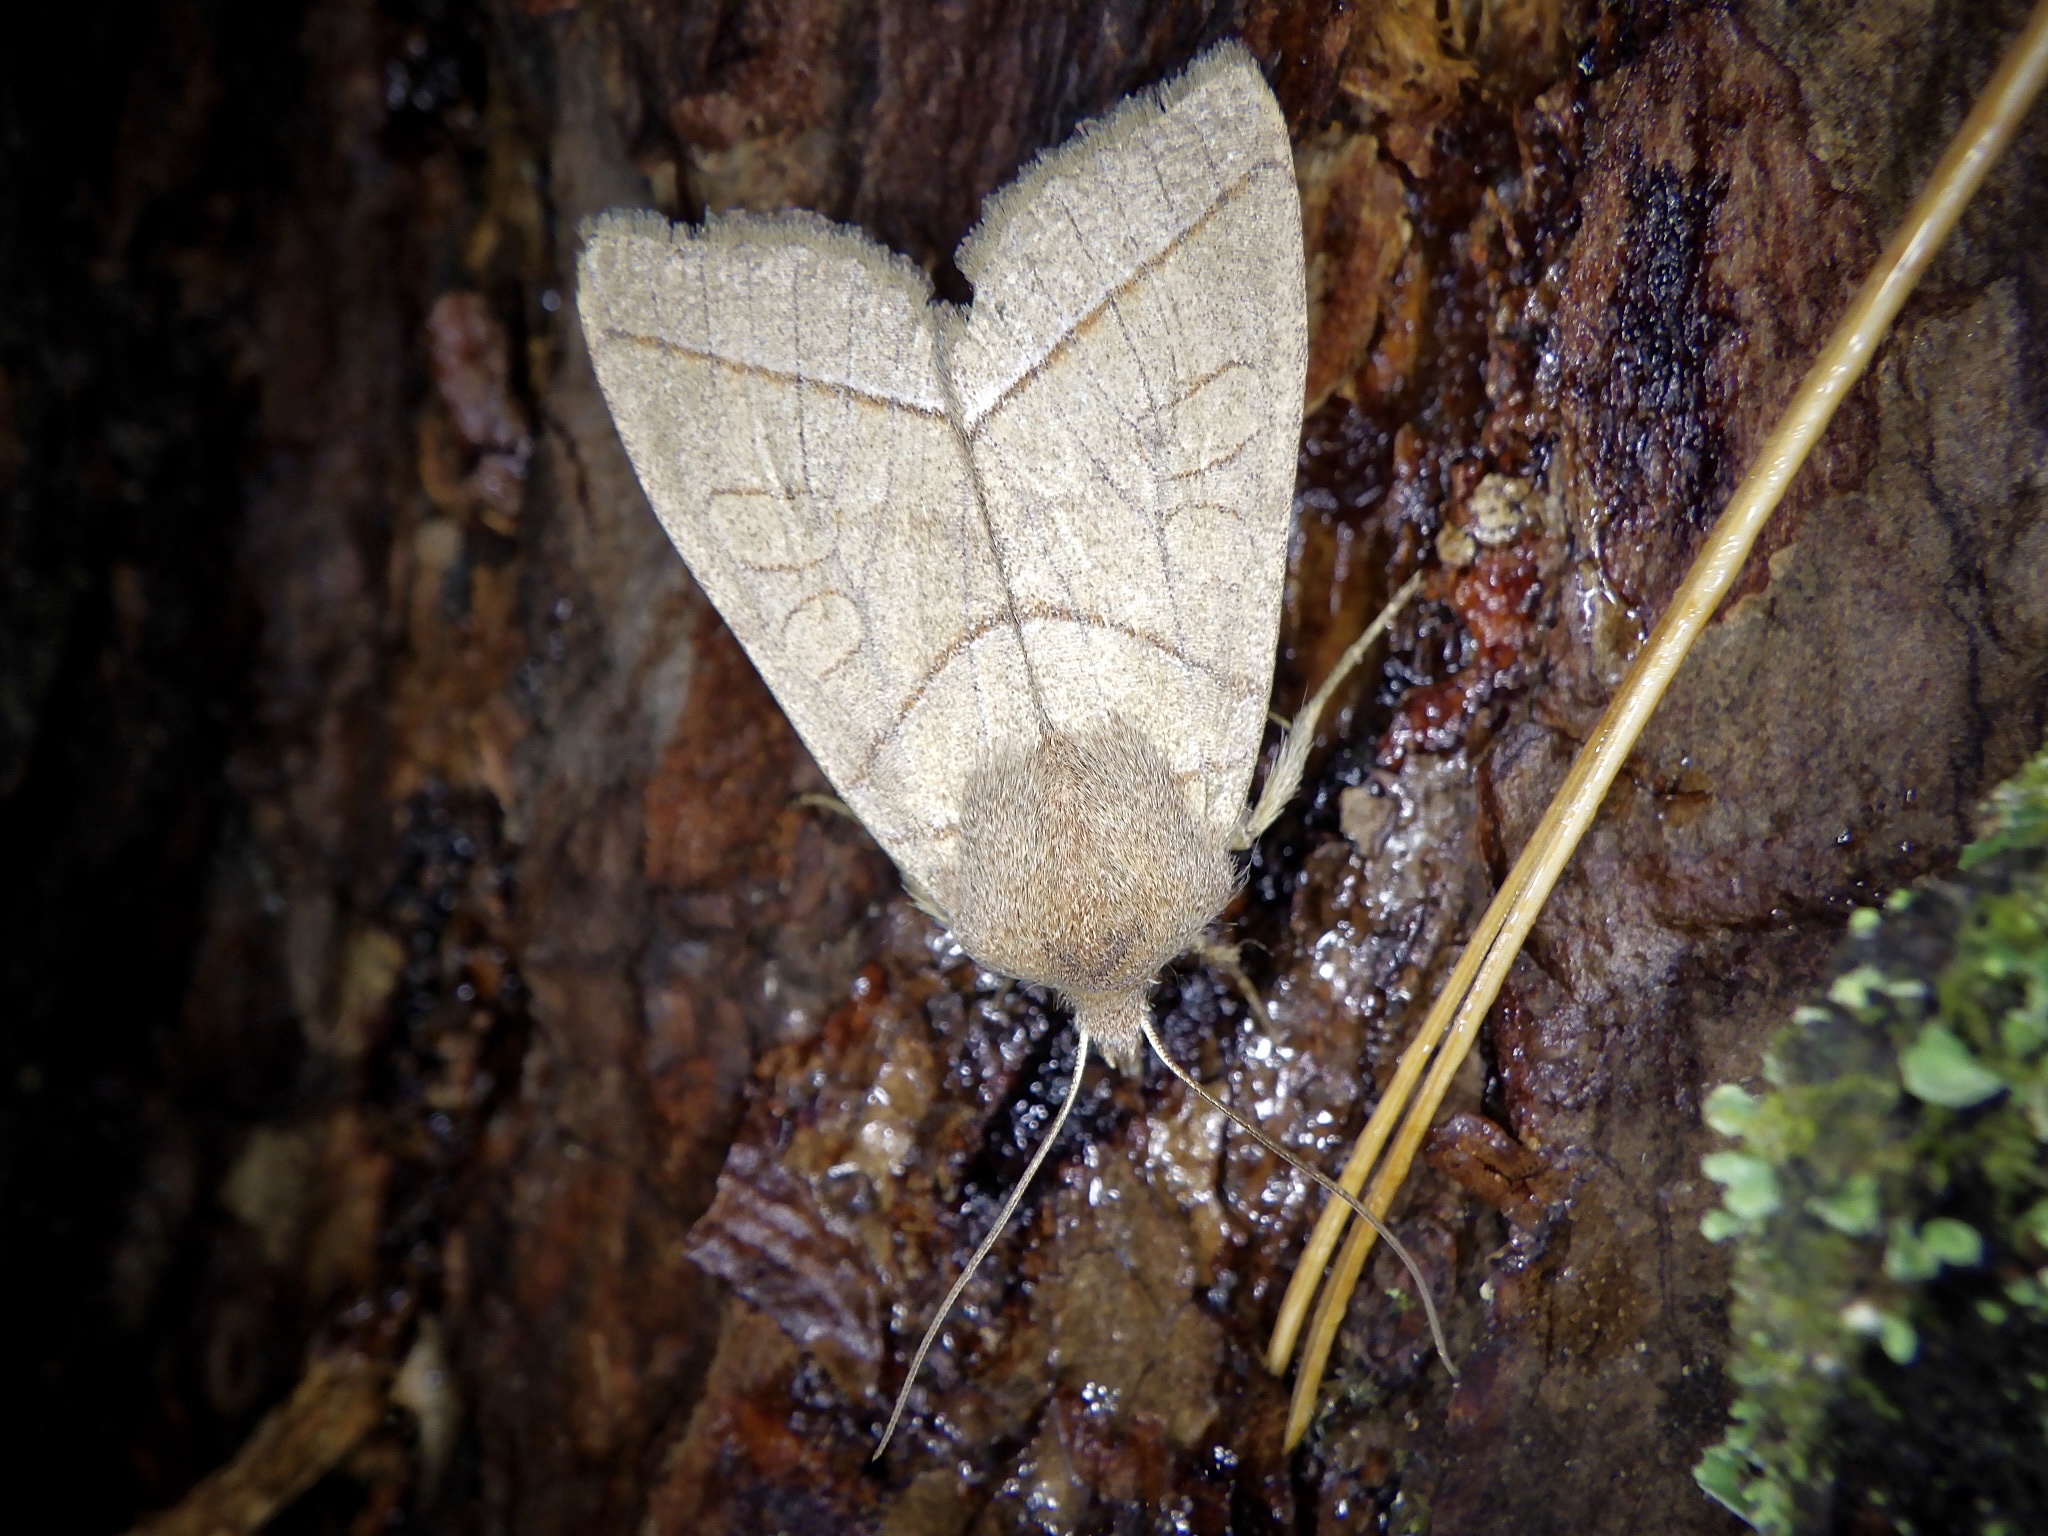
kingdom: Animalia
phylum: Arthropoda
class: Insecta
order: Lepidoptera
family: Noctuidae
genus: Telorta
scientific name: Telorta divergens
